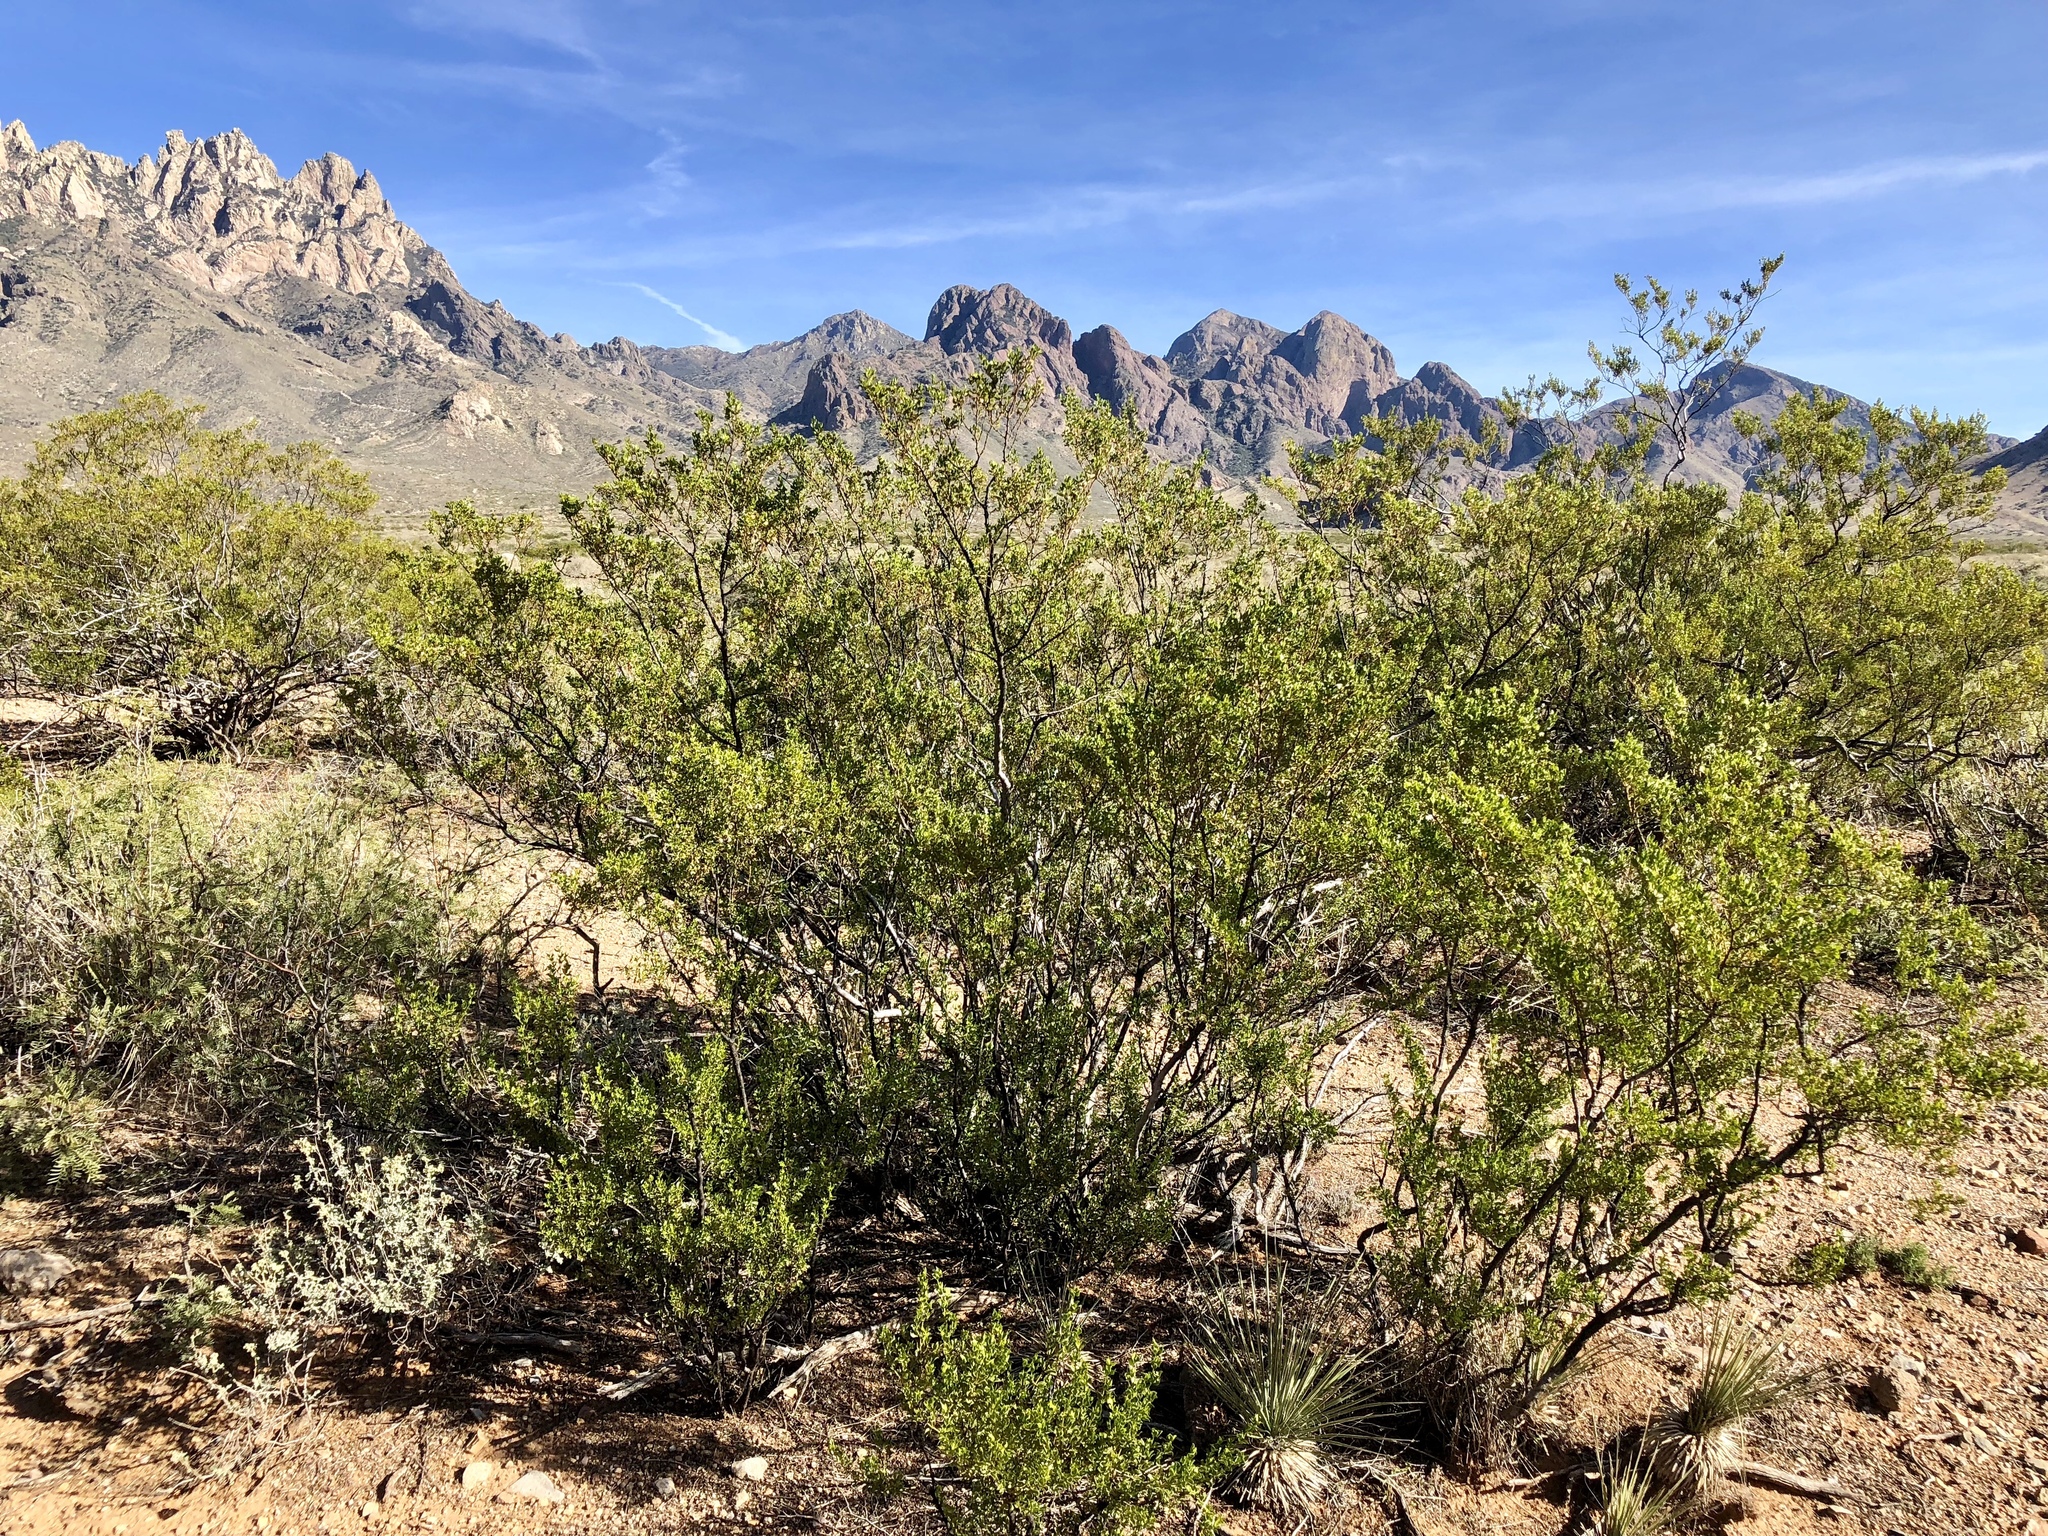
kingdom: Plantae
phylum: Tracheophyta
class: Magnoliopsida
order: Zygophyllales
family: Zygophyllaceae
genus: Larrea
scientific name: Larrea tridentata
